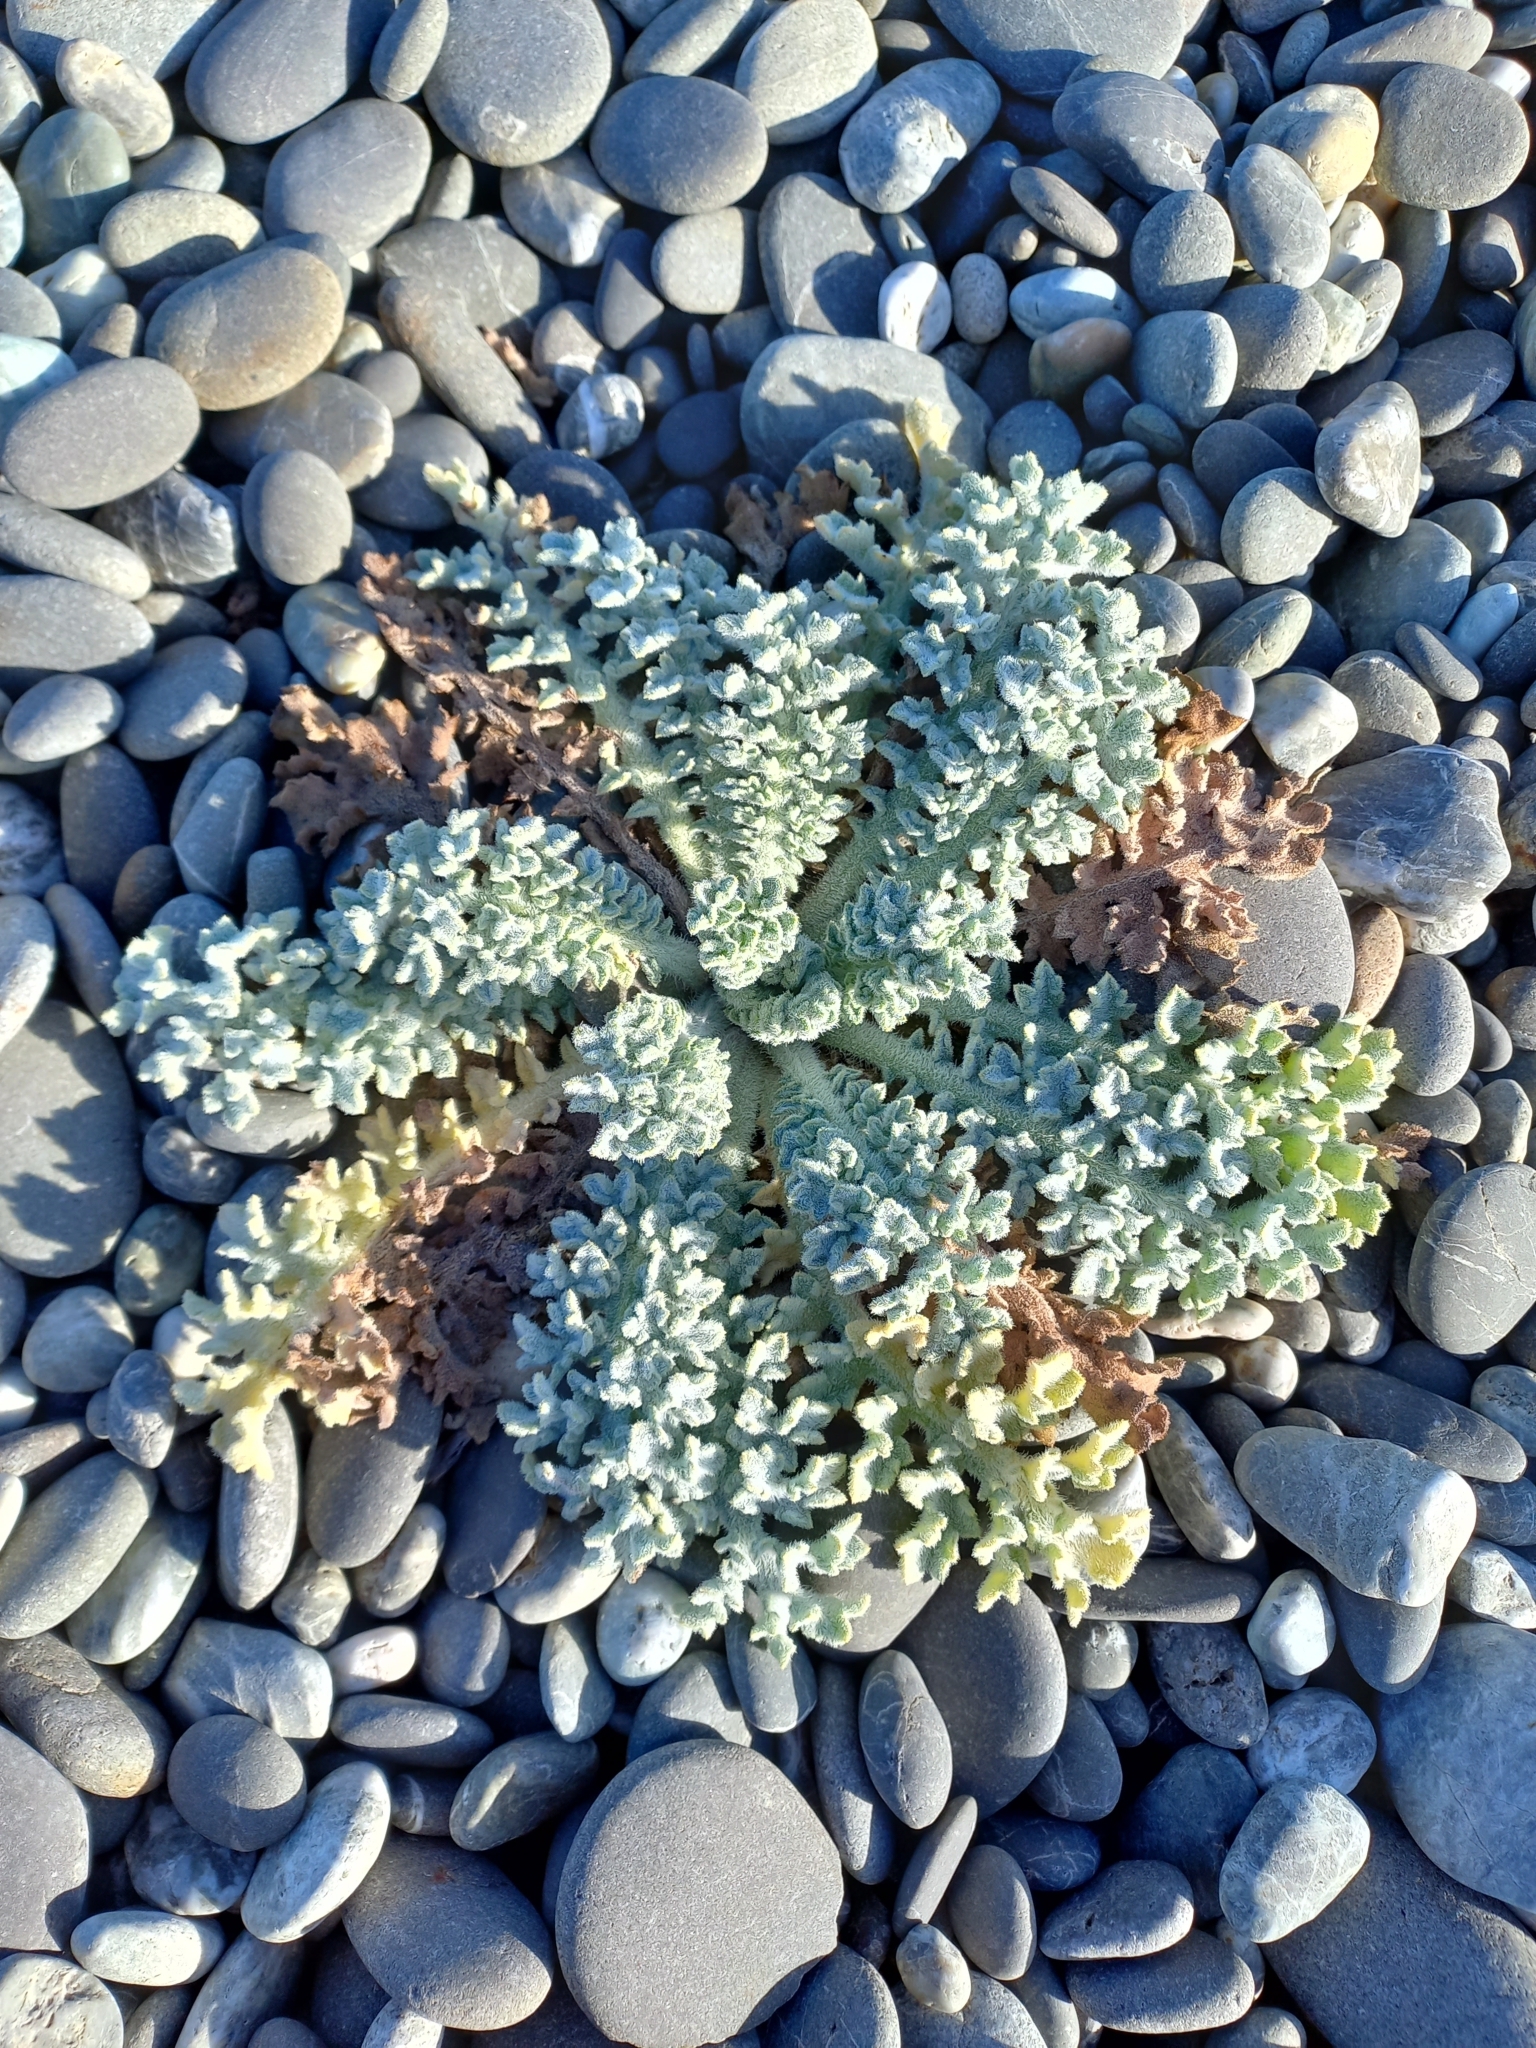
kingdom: Plantae
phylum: Tracheophyta
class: Magnoliopsida
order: Ranunculales
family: Papaveraceae
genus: Glaucium
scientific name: Glaucium flavum
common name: Yellow horned-poppy
